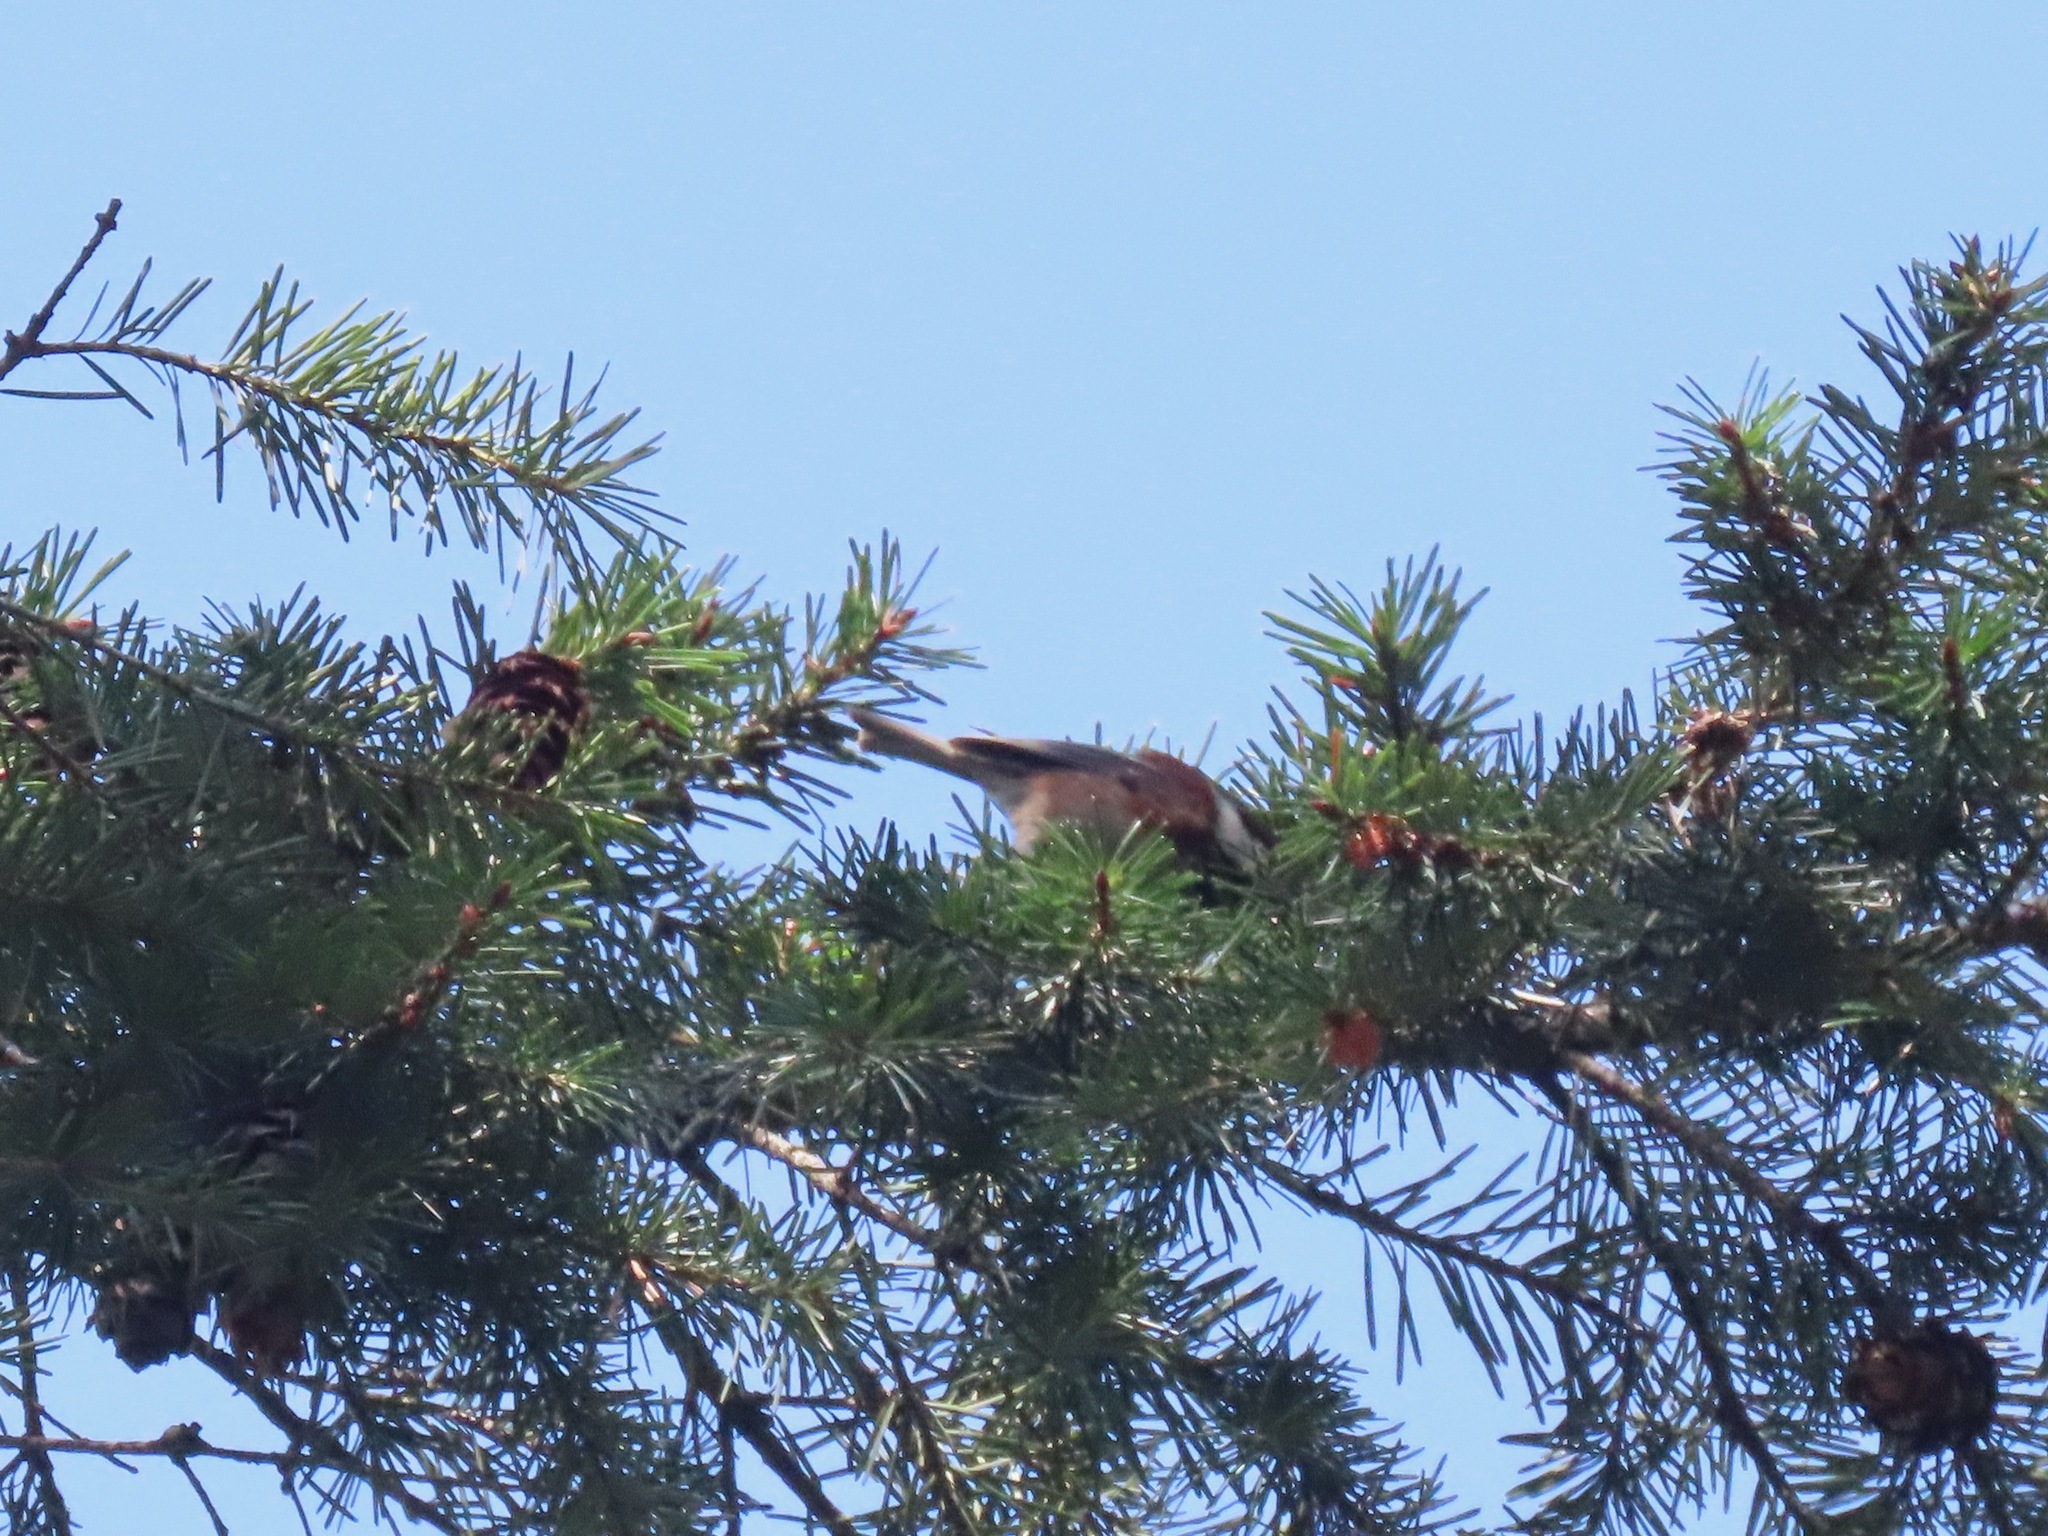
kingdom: Animalia
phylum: Chordata
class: Aves
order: Passeriformes
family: Paridae
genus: Poecile
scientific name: Poecile rufescens
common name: Chestnut-backed chickadee
